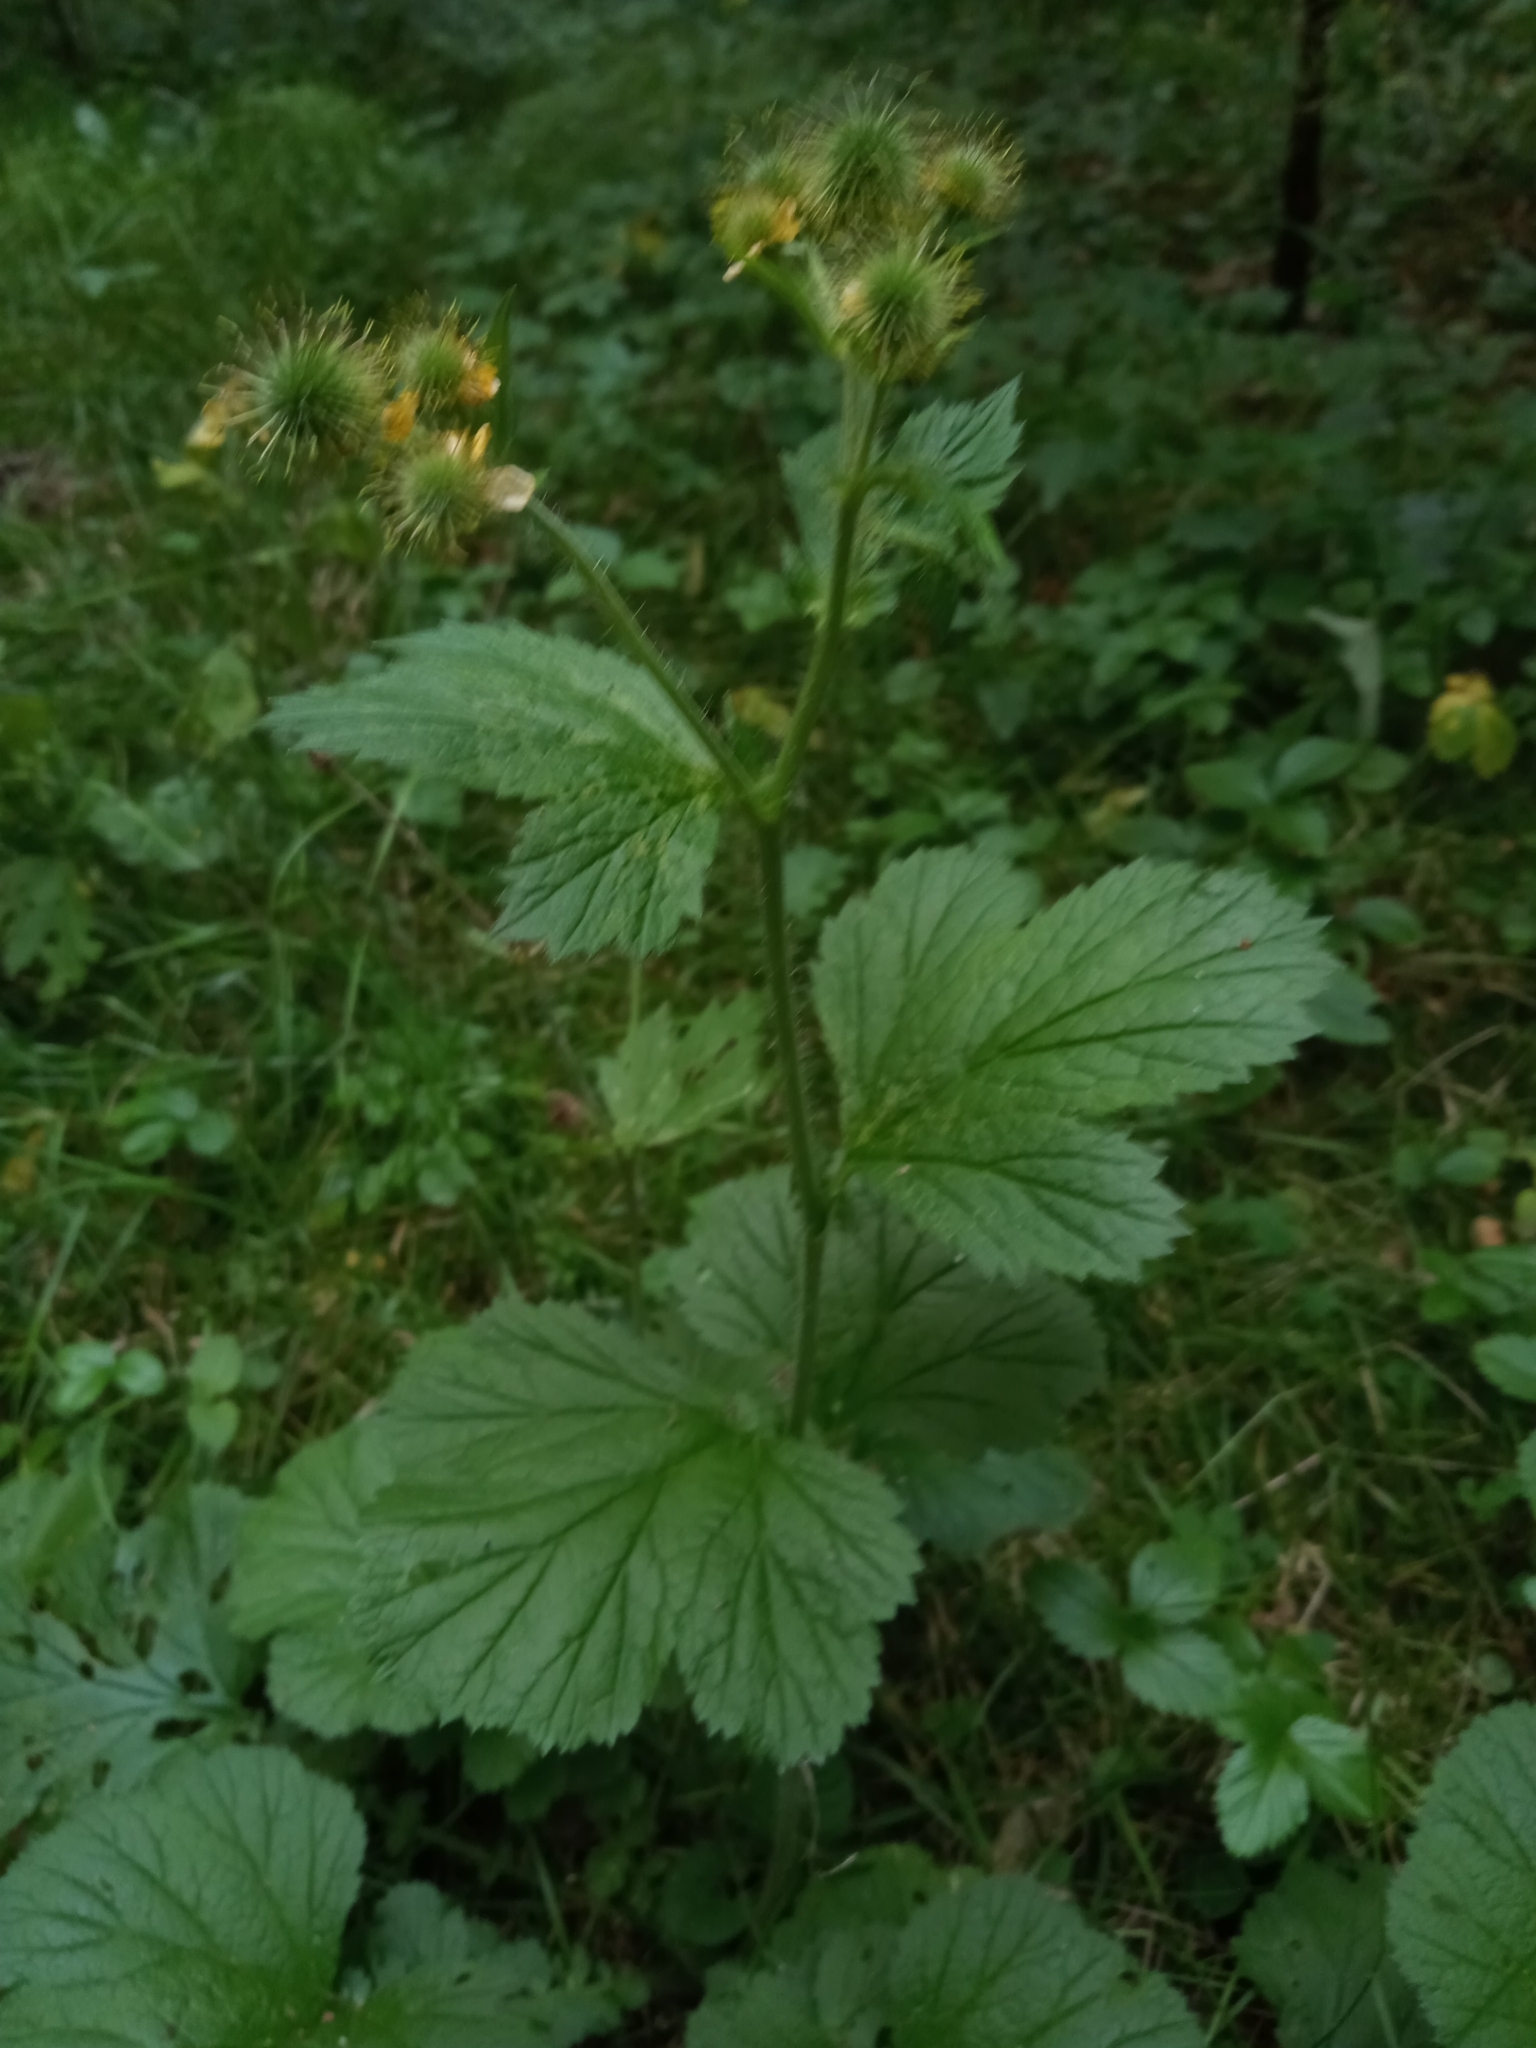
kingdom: Plantae
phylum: Tracheophyta
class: Magnoliopsida
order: Rosales
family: Rosaceae
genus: Geum
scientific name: Geum macrophyllum
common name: Large-leaved avens
